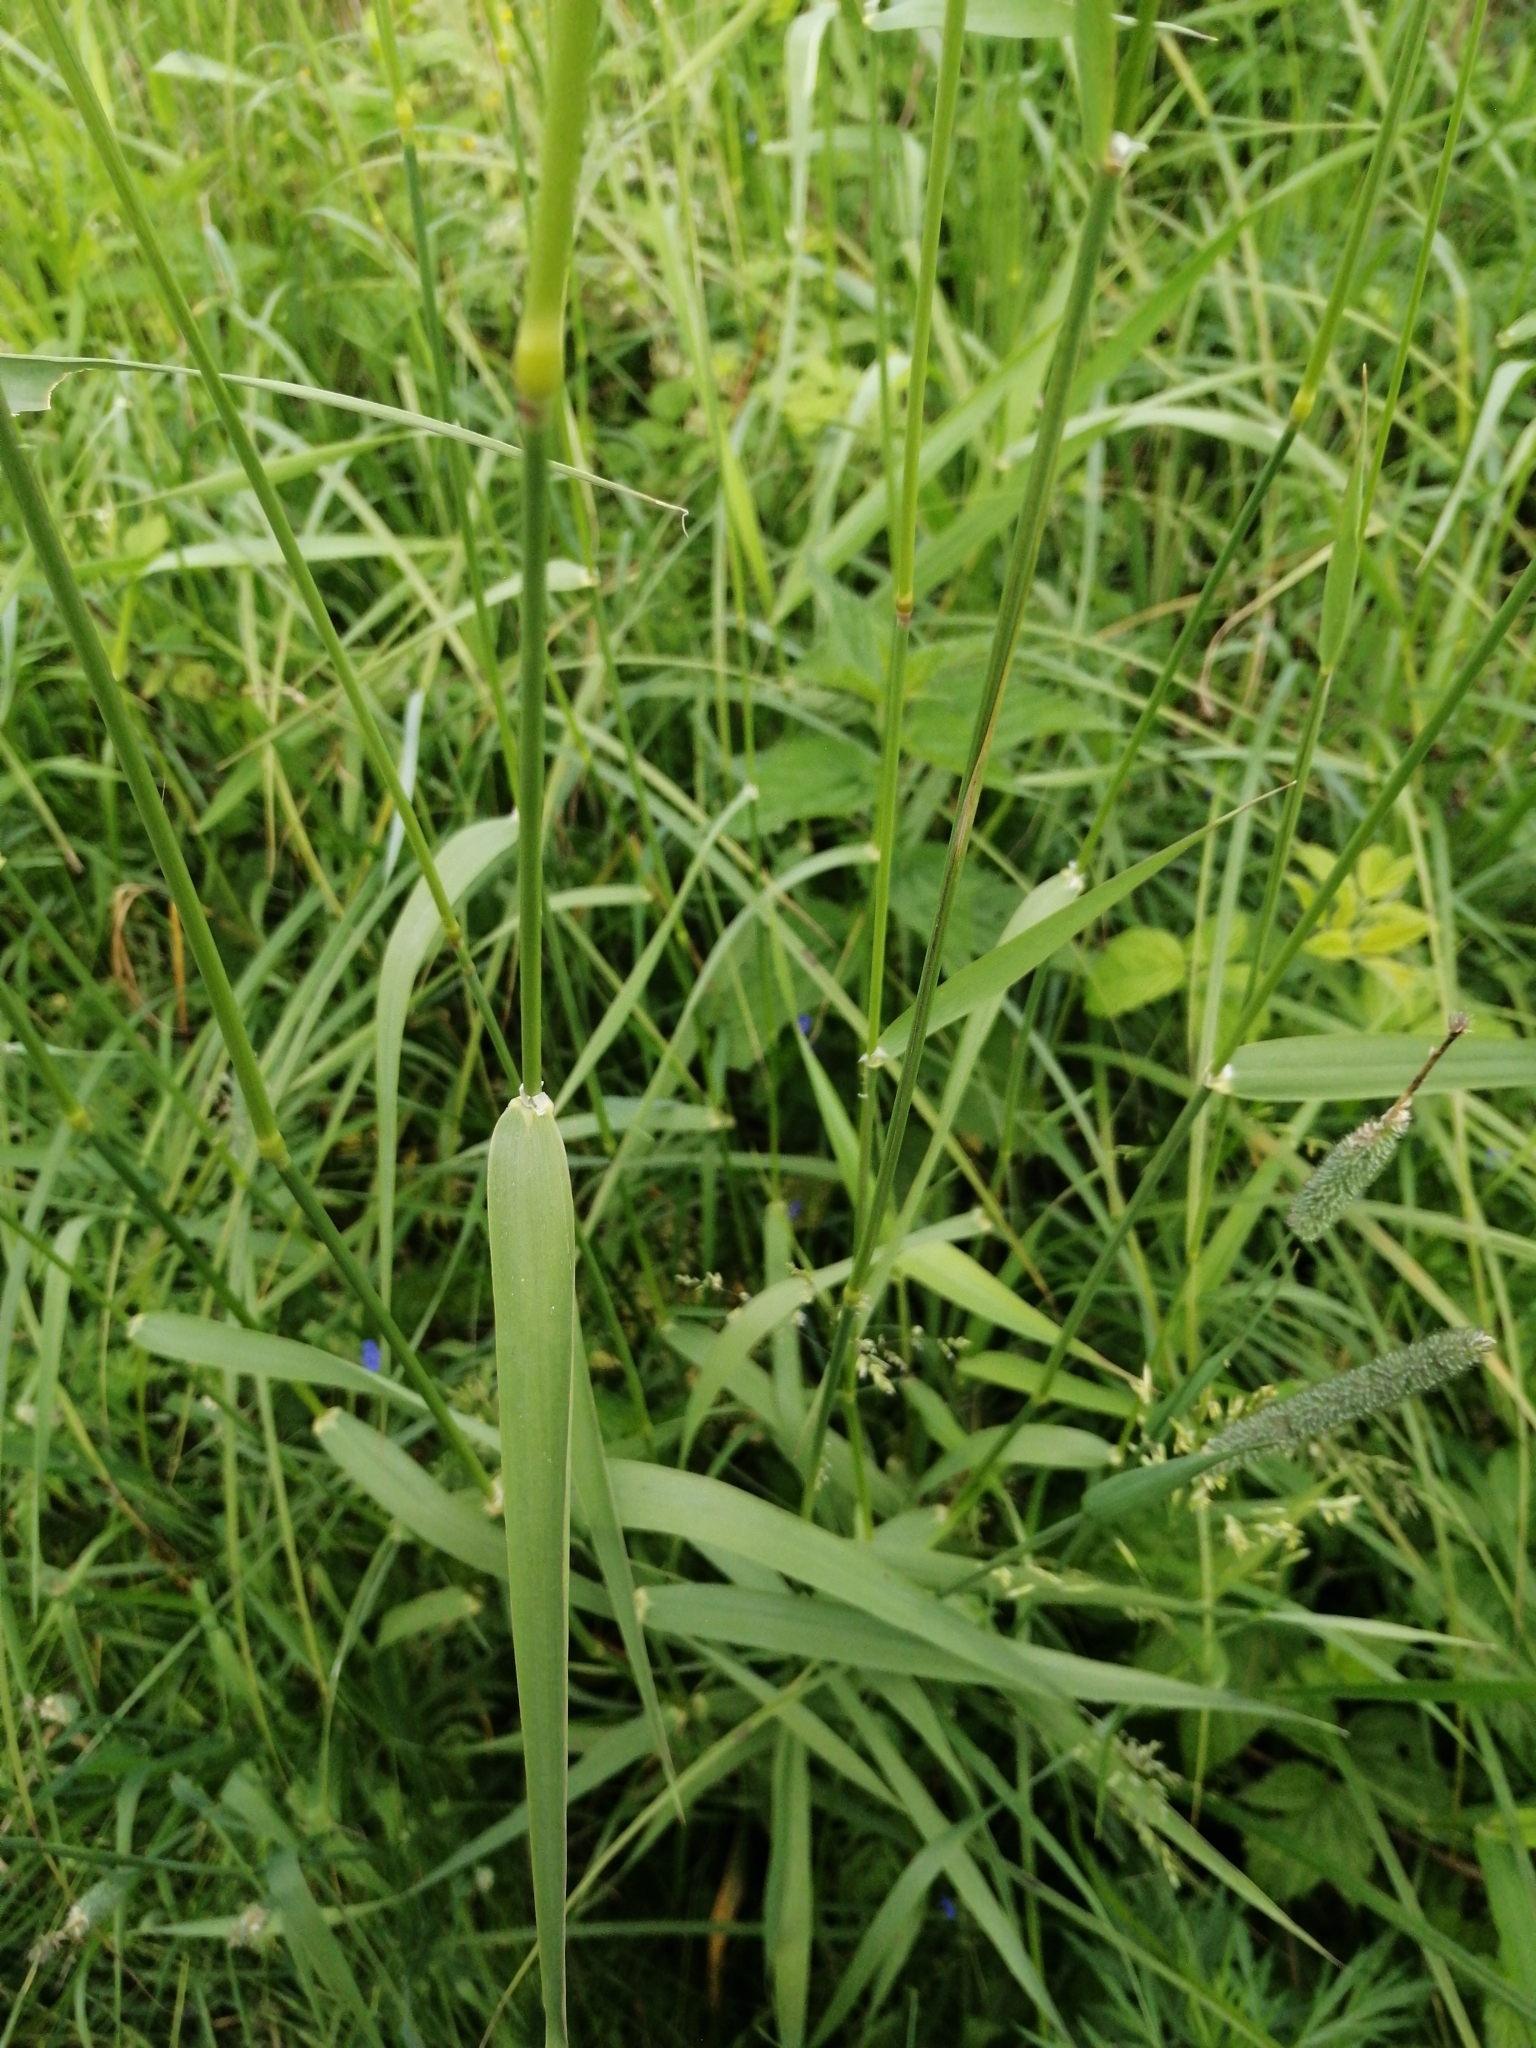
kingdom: Plantae
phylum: Tracheophyta
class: Liliopsida
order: Poales
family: Poaceae
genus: Phalaris
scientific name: Phalaris arundinacea
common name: Reed canary-grass
